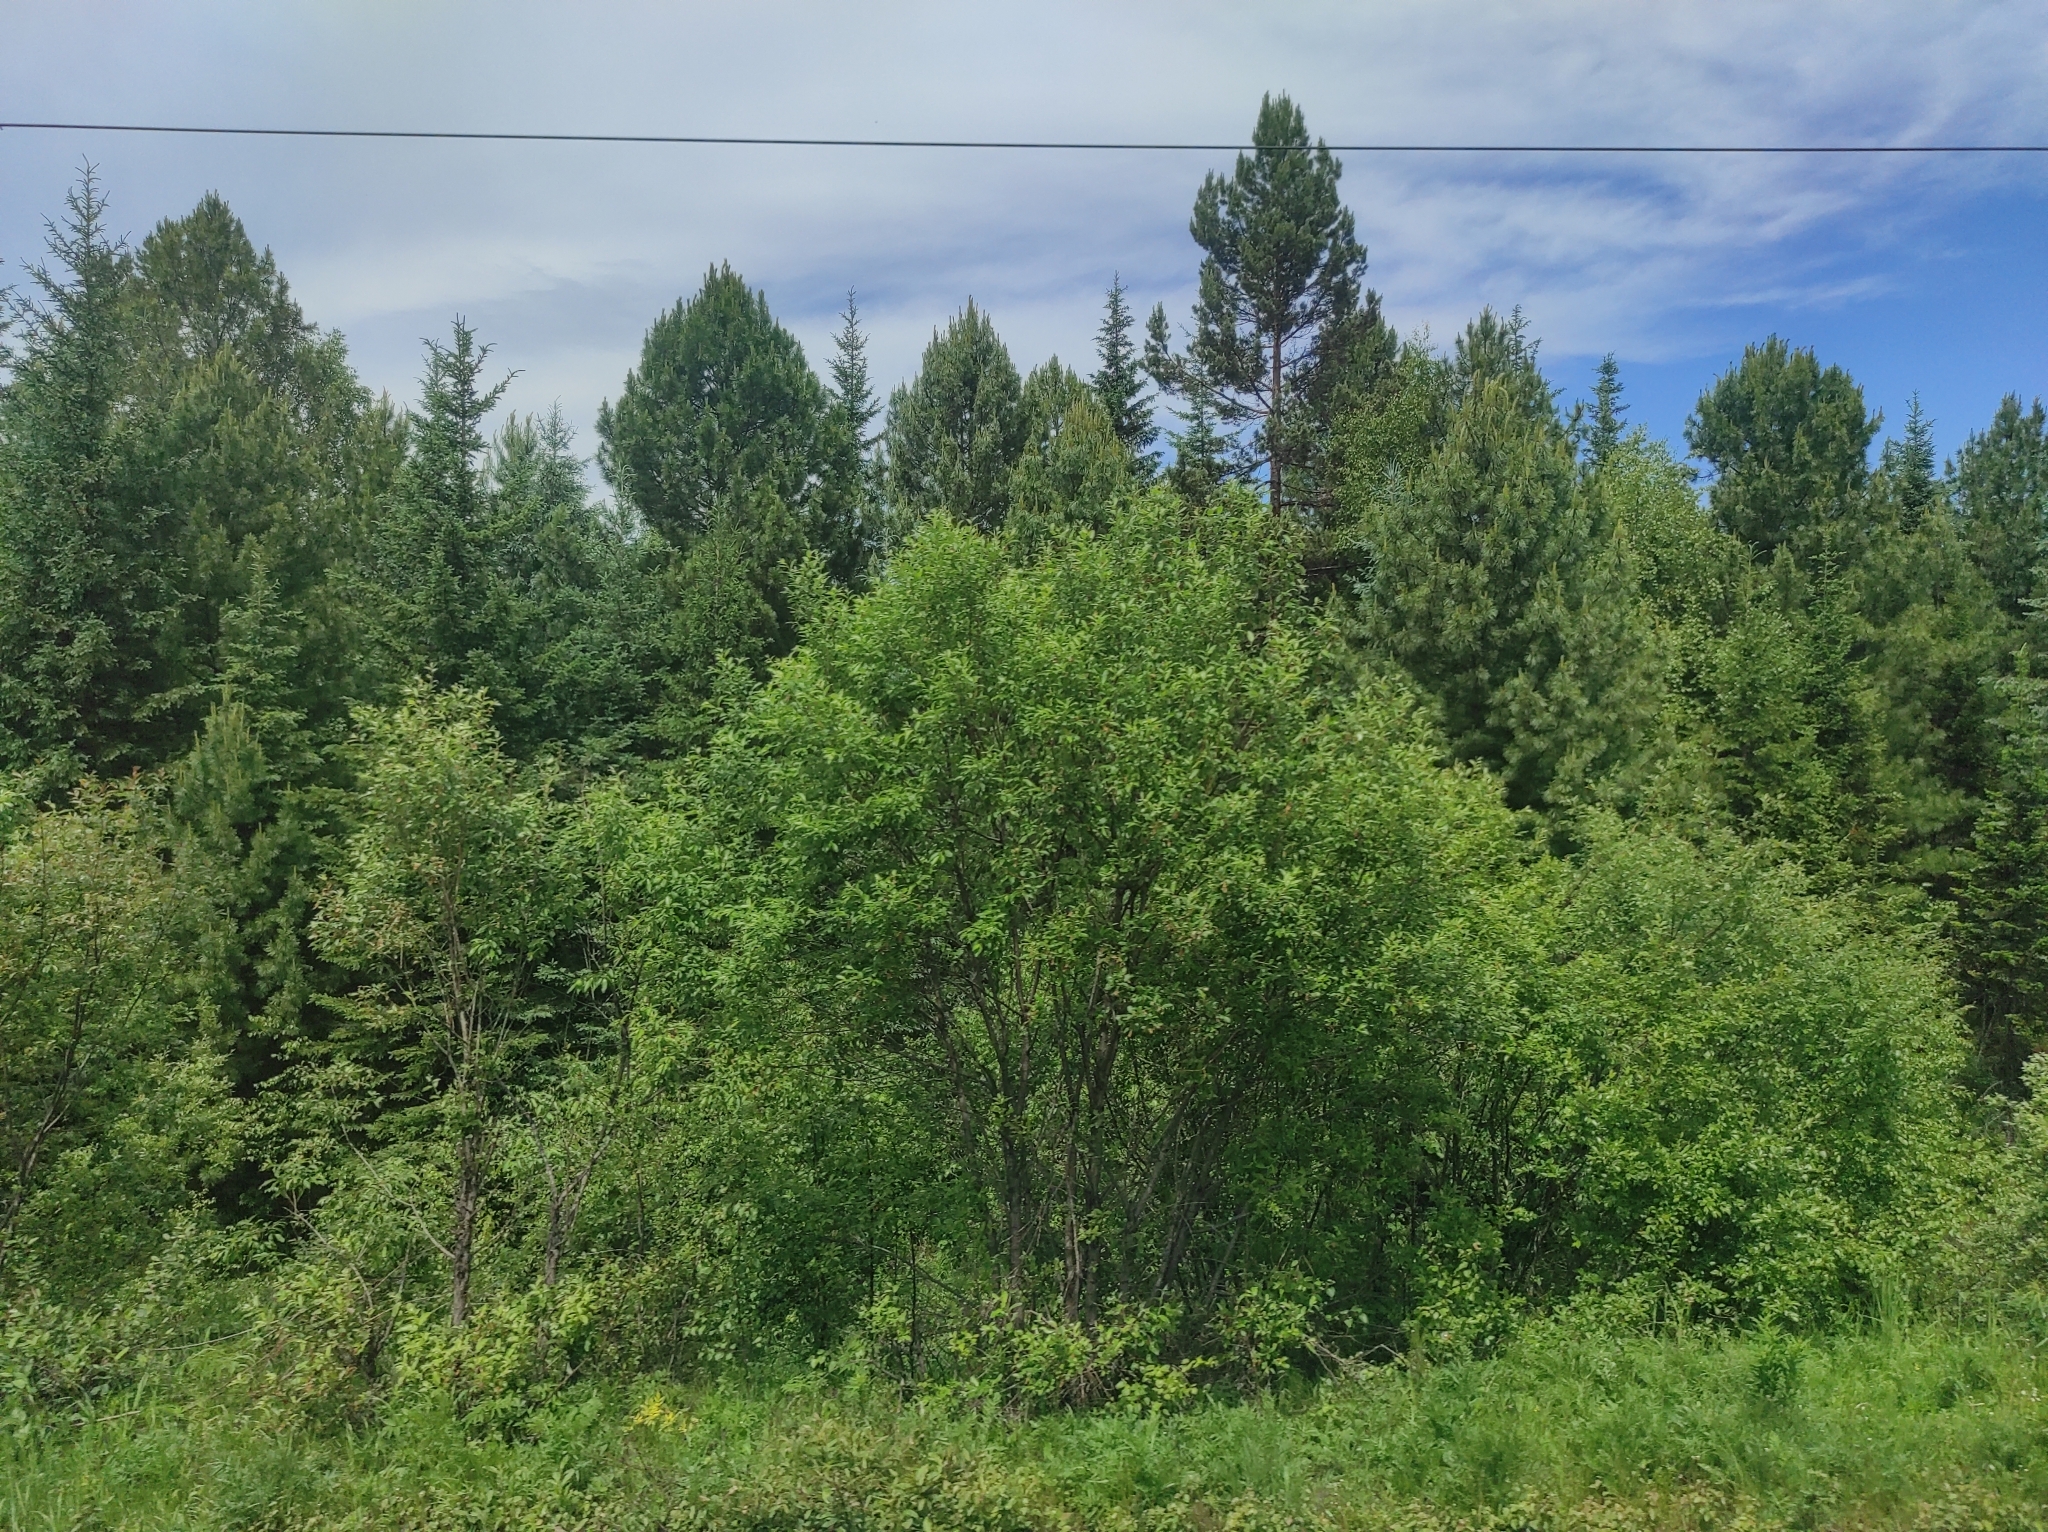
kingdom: Plantae
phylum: Tracheophyta
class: Pinopsida
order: Pinales
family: Pinaceae
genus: Pinus
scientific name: Pinus sibirica
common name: Siberian pine
